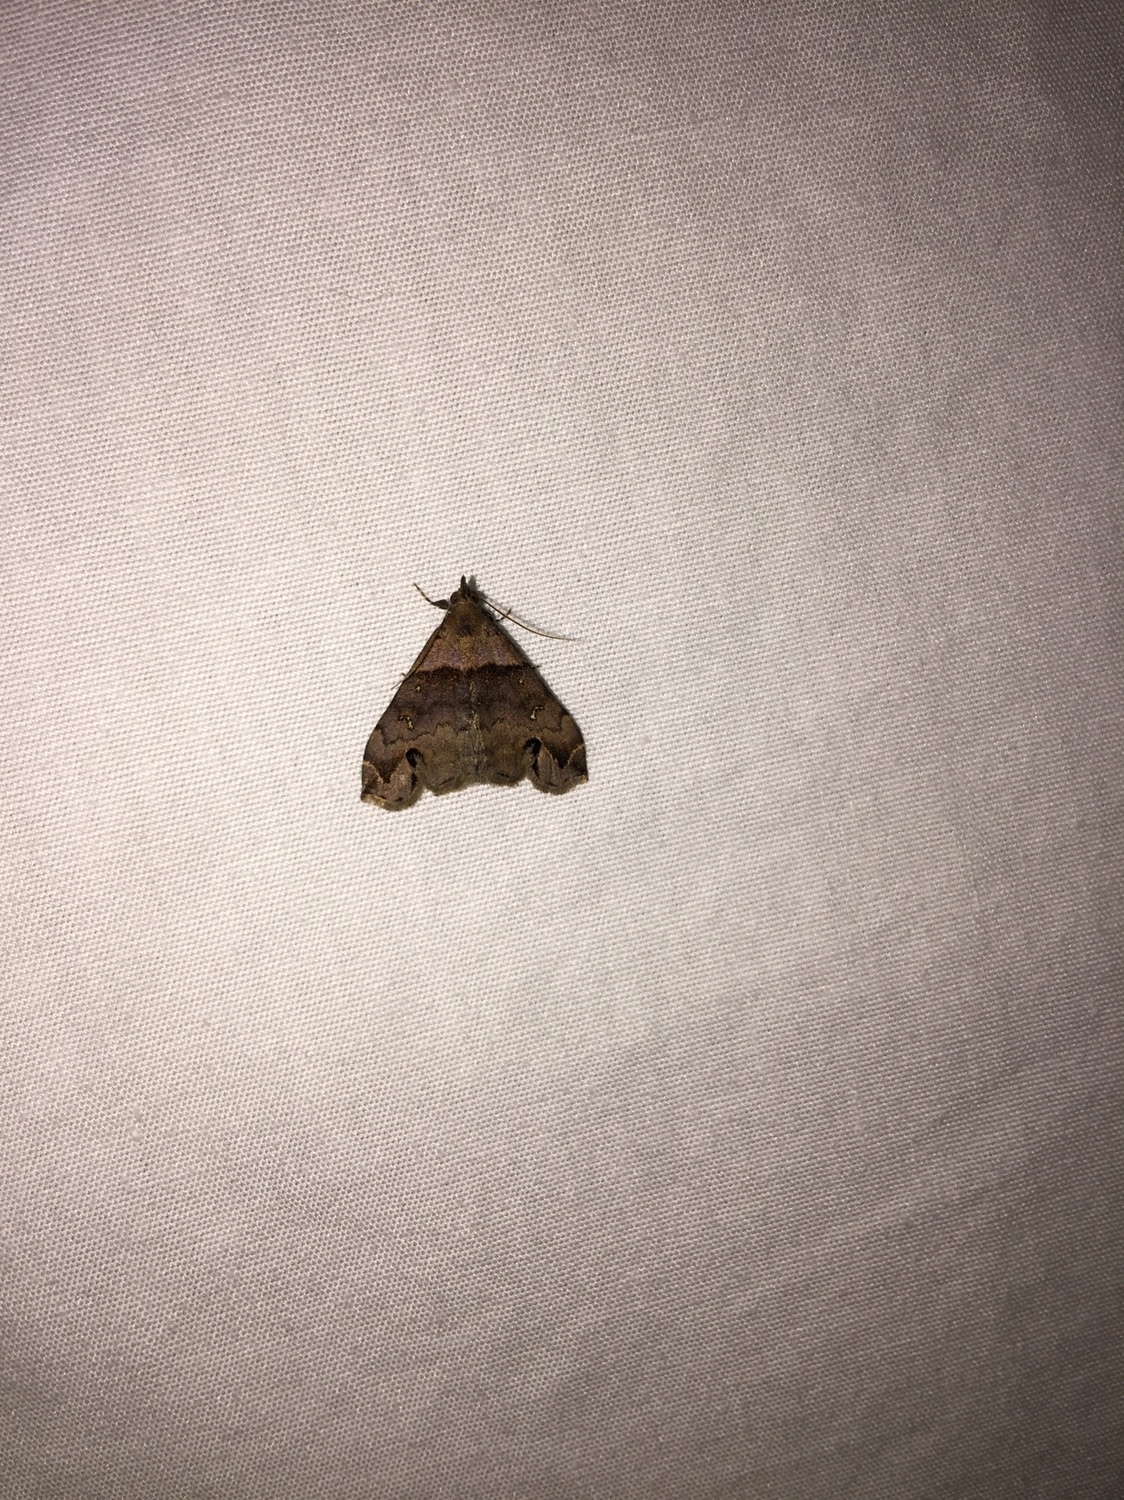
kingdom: Animalia
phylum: Arthropoda
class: Insecta
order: Lepidoptera
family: Erebidae
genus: Lascoria
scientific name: Lascoria ambigualis
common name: Ambiguous moth
